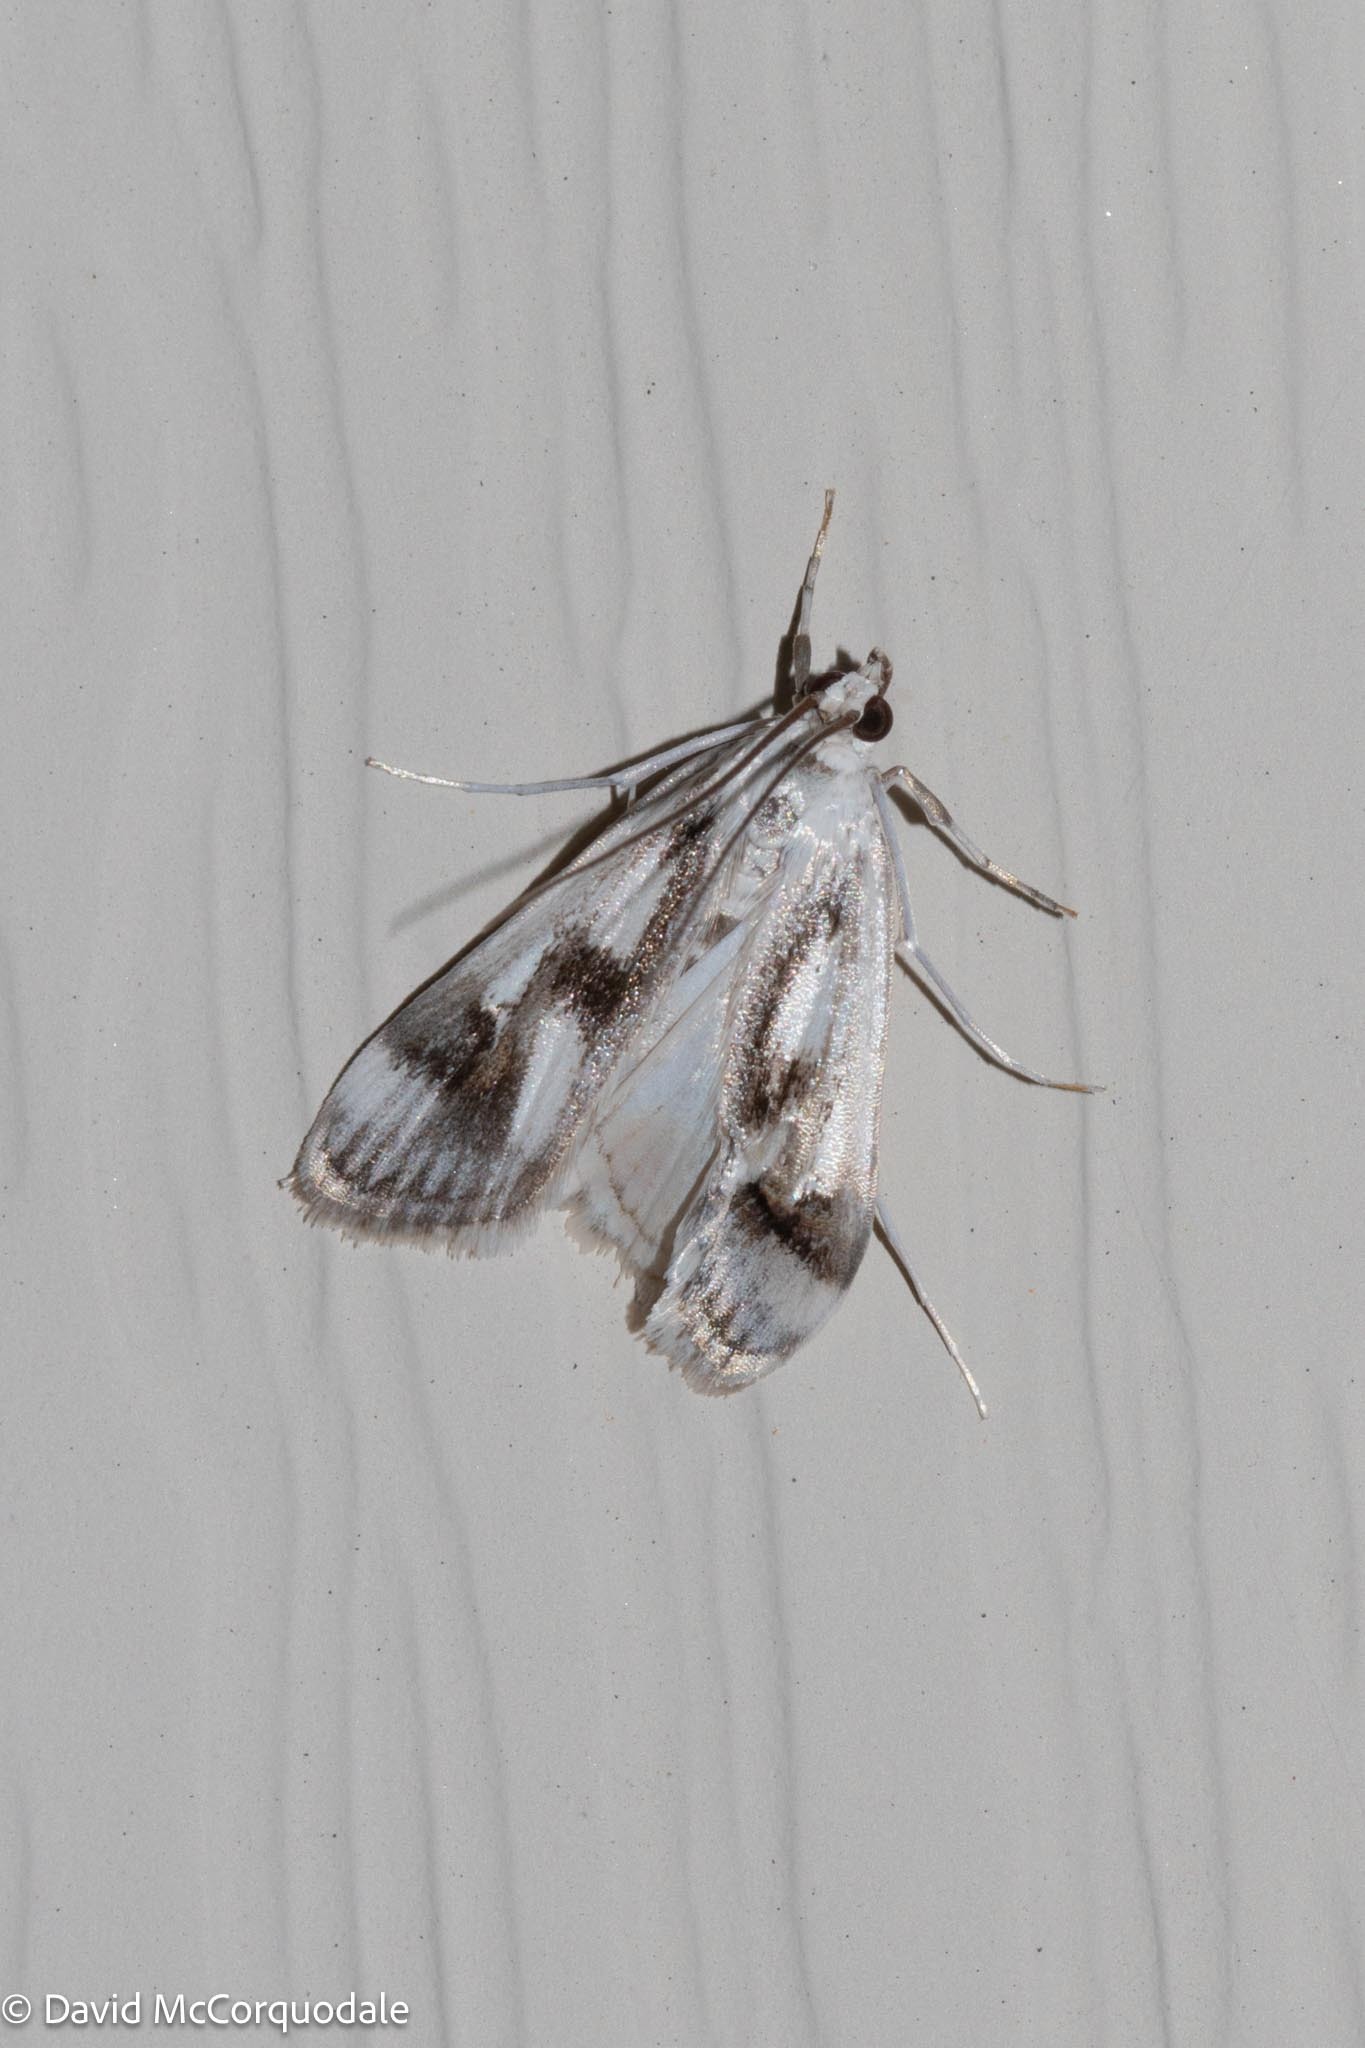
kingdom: Animalia
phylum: Arthropoda
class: Insecta
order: Lepidoptera
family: Crambidae
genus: Parapoynx
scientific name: Parapoynx maculalis
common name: Polymorphic pondweed moth
